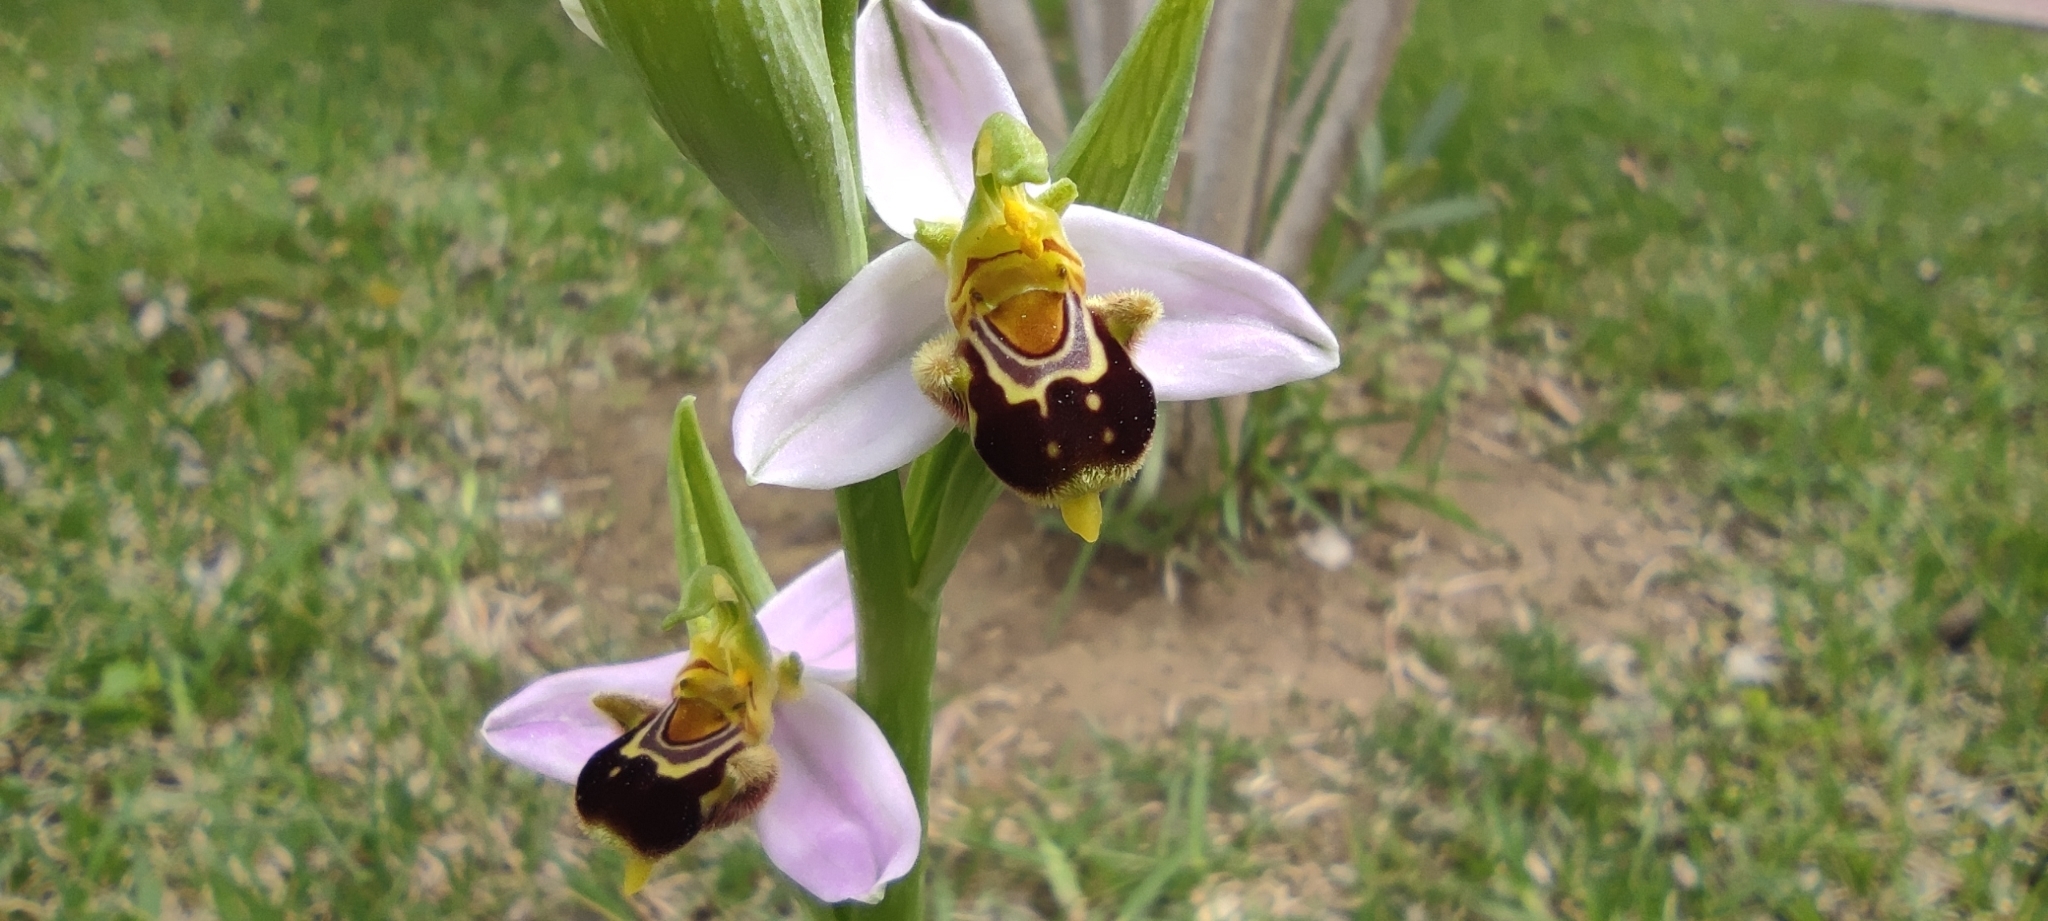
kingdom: Plantae
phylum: Tracheophyta
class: Liliopsida
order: Asparagales
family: Orchidaceae
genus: Ophrys
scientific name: Ophrys apifera
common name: Bee orchid
